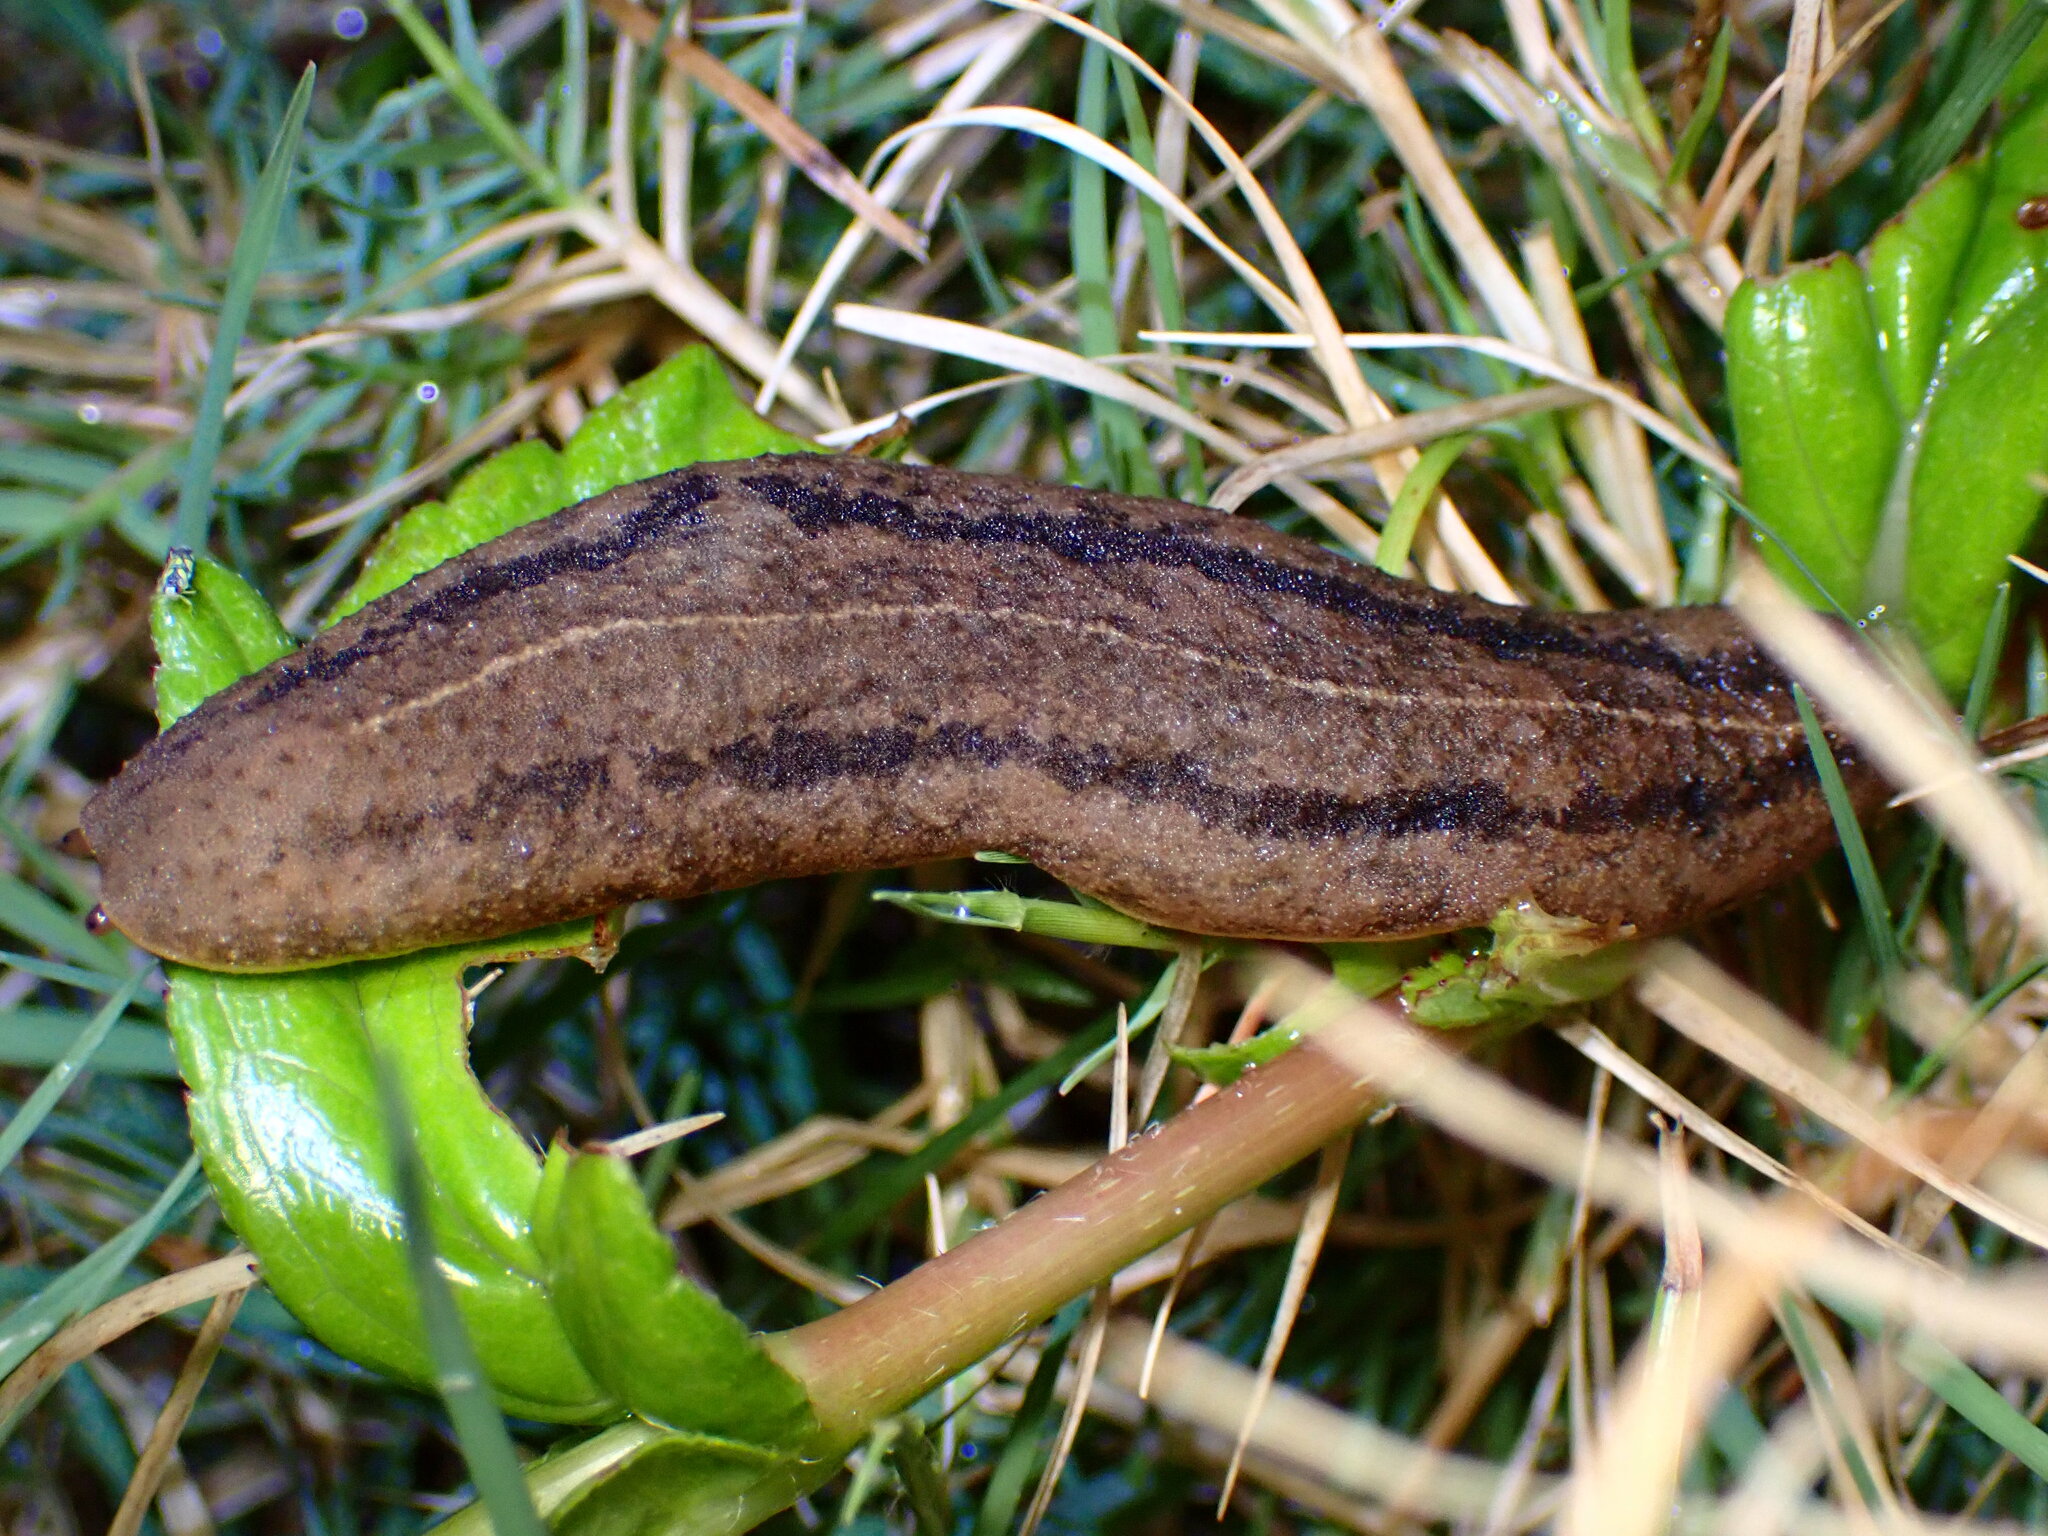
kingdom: Animalia
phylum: Mollusca
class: Gastropoda
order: Systellommatophora
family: Veronicellidae
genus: Veronicella
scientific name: Veronicella cubensis
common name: Two striped slug
